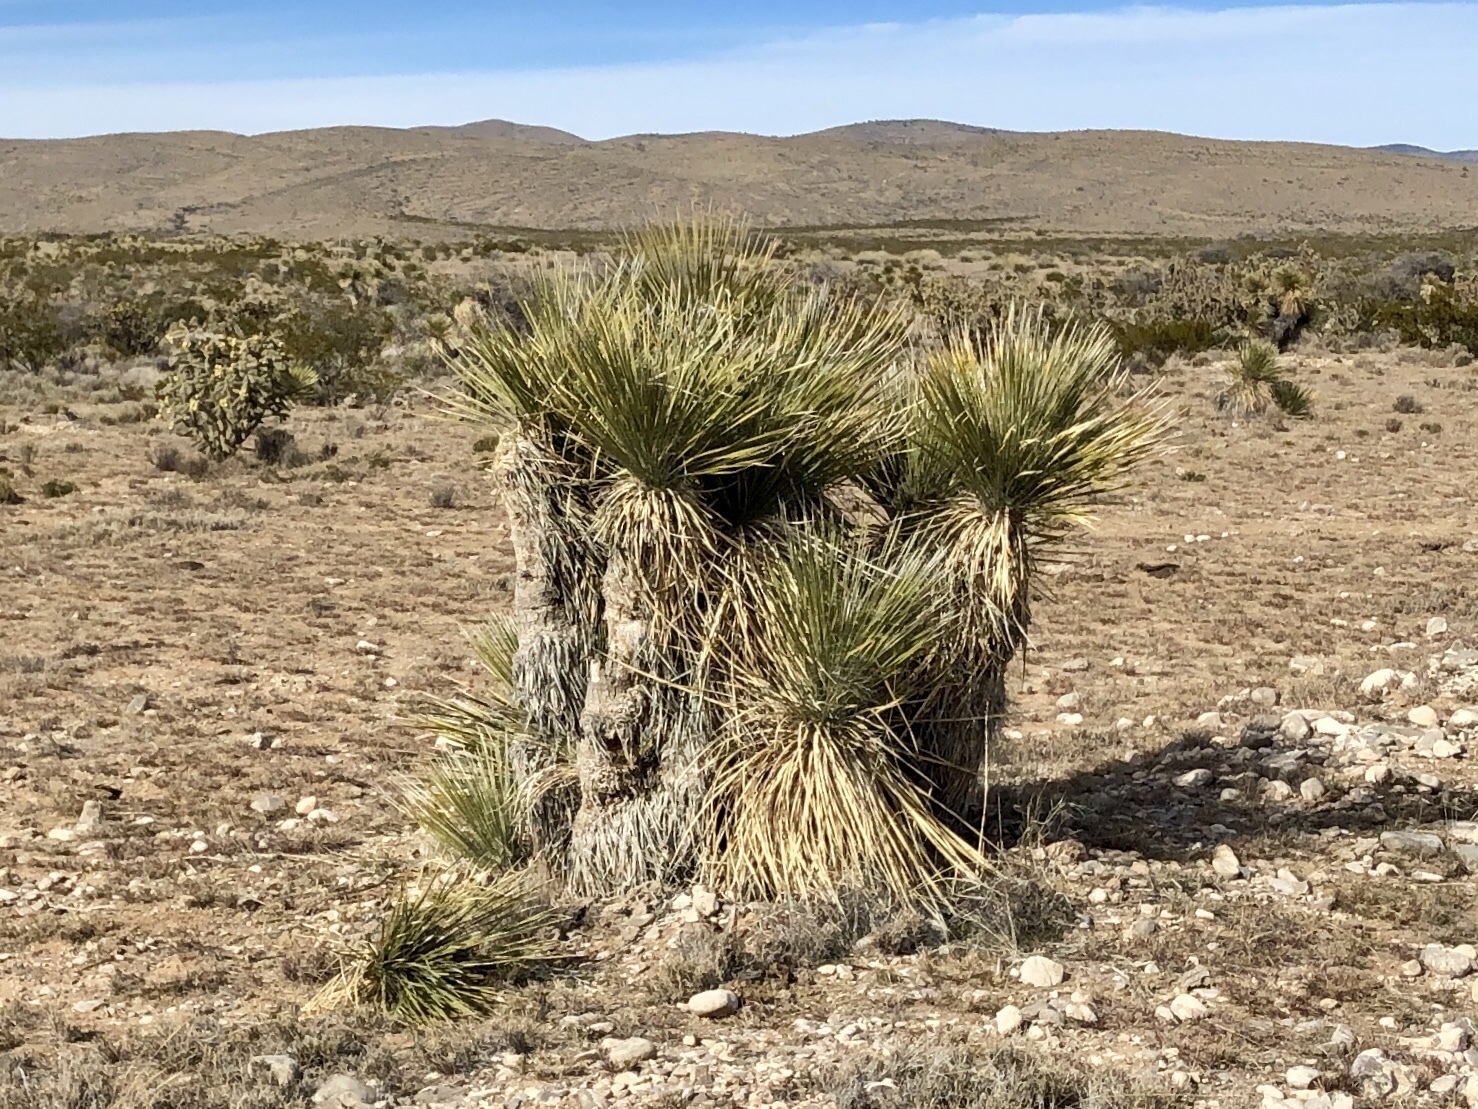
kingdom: Plantae
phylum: Tracheophyta
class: Liliopsida
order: Asparagales
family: Asparagaceae
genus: Yucca
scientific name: Yucca elata
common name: Palmella
